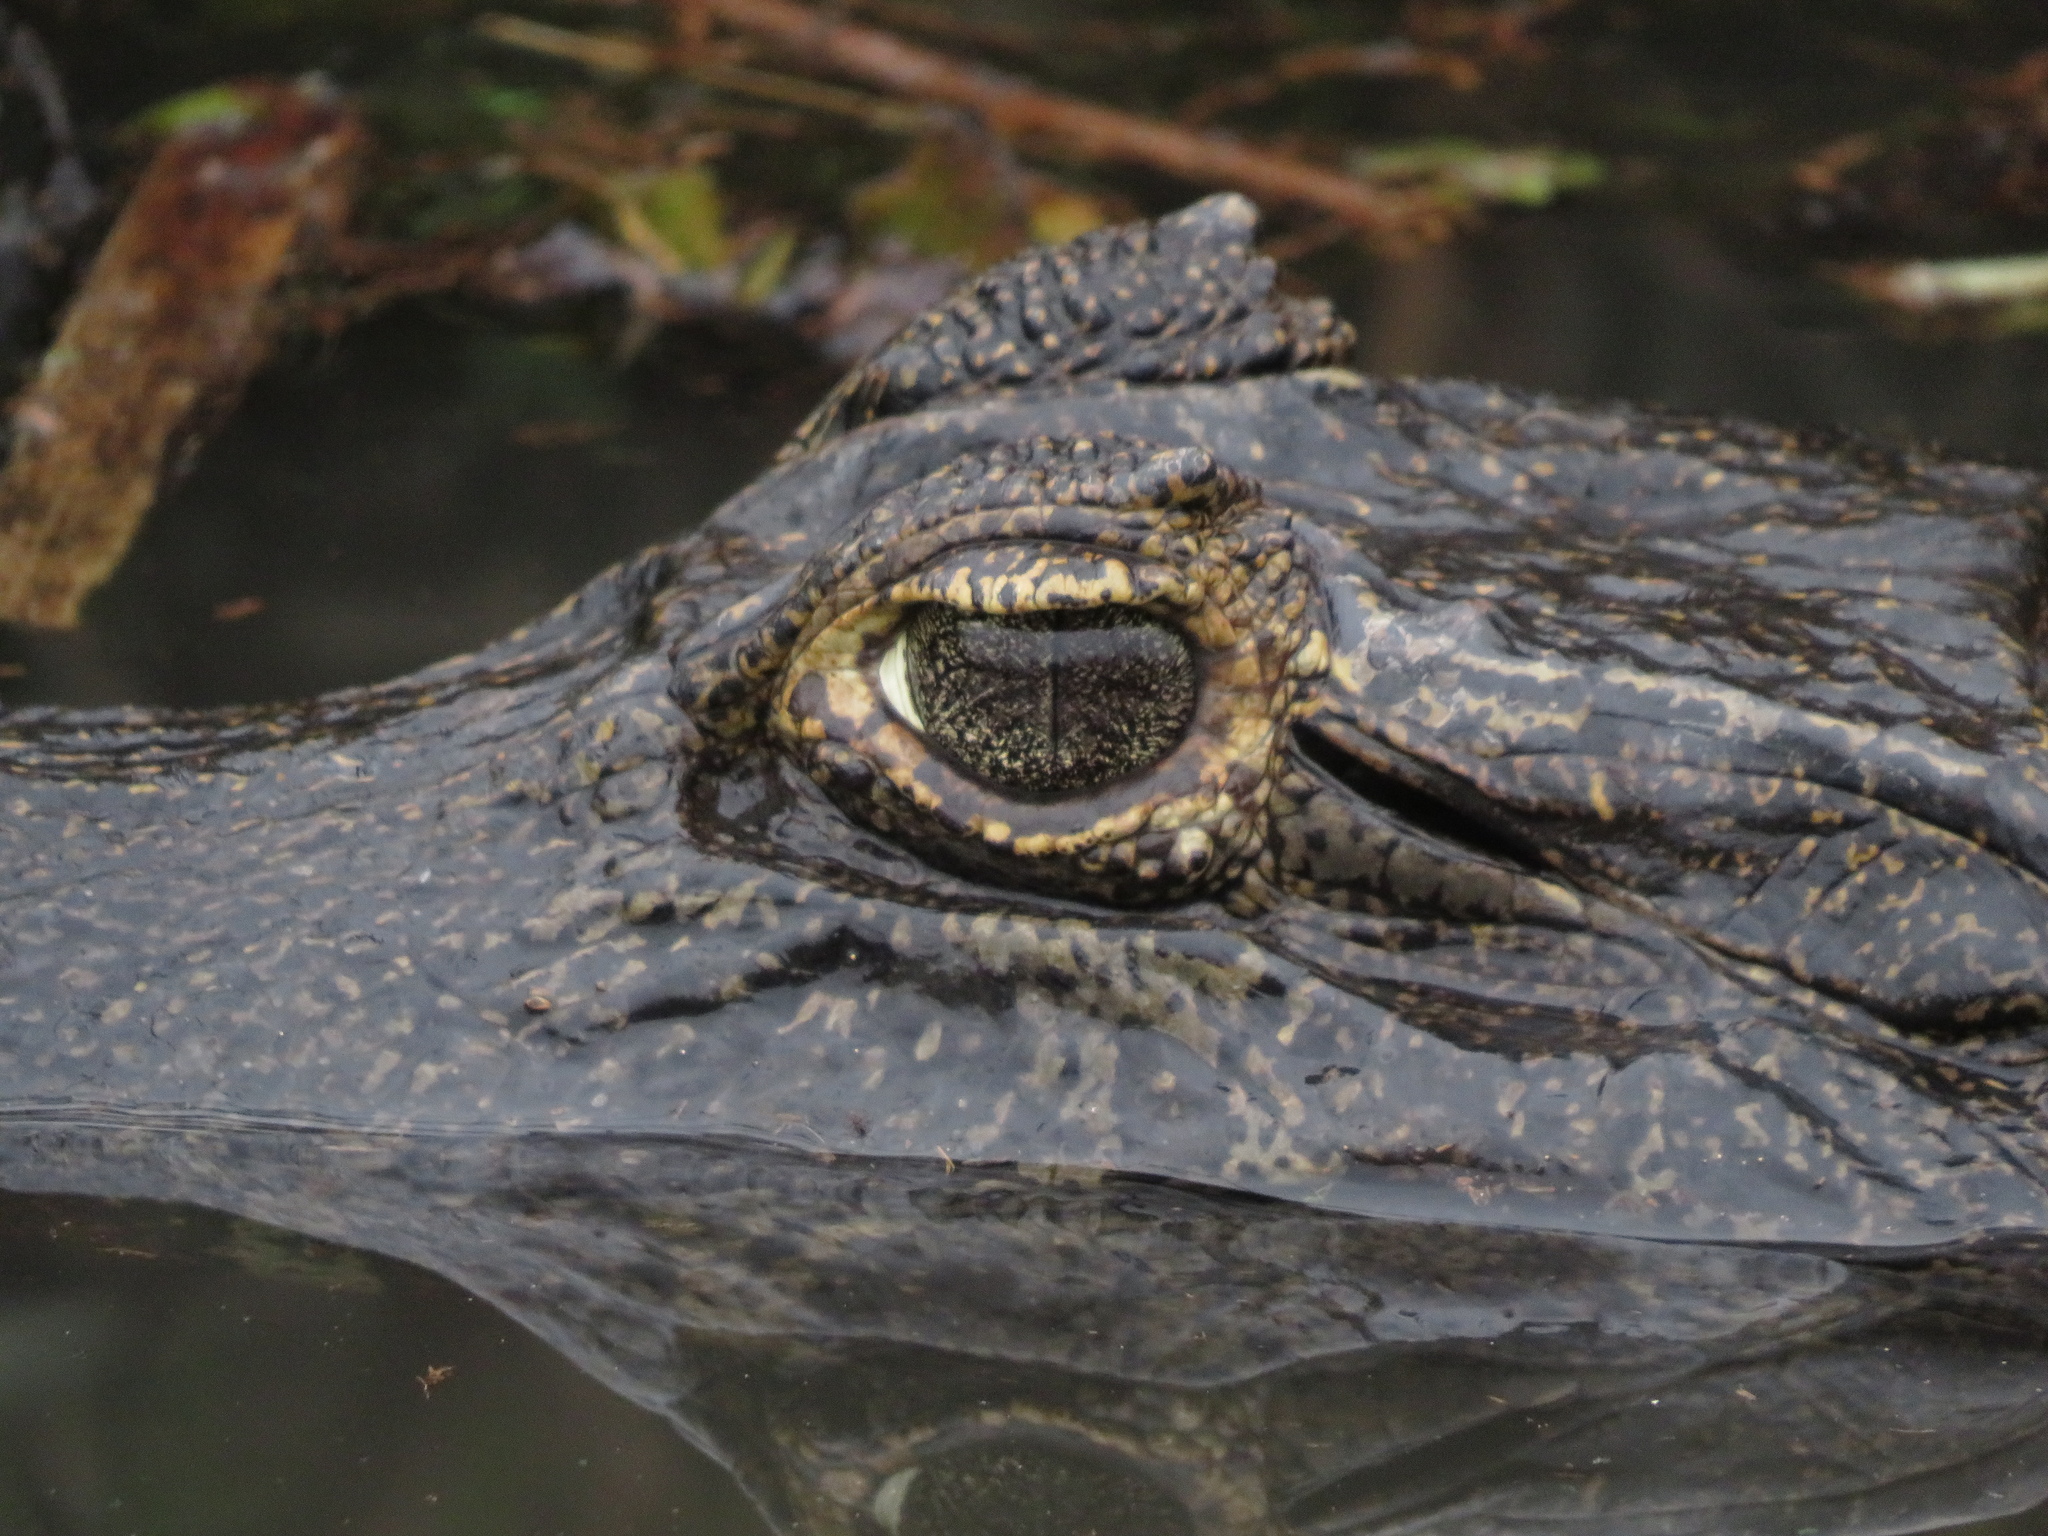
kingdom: Animalia
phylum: Chordata
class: Crocodylia
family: Alligatoridae
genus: Caiman
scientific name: Caiman yacare
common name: Yacare caiman
